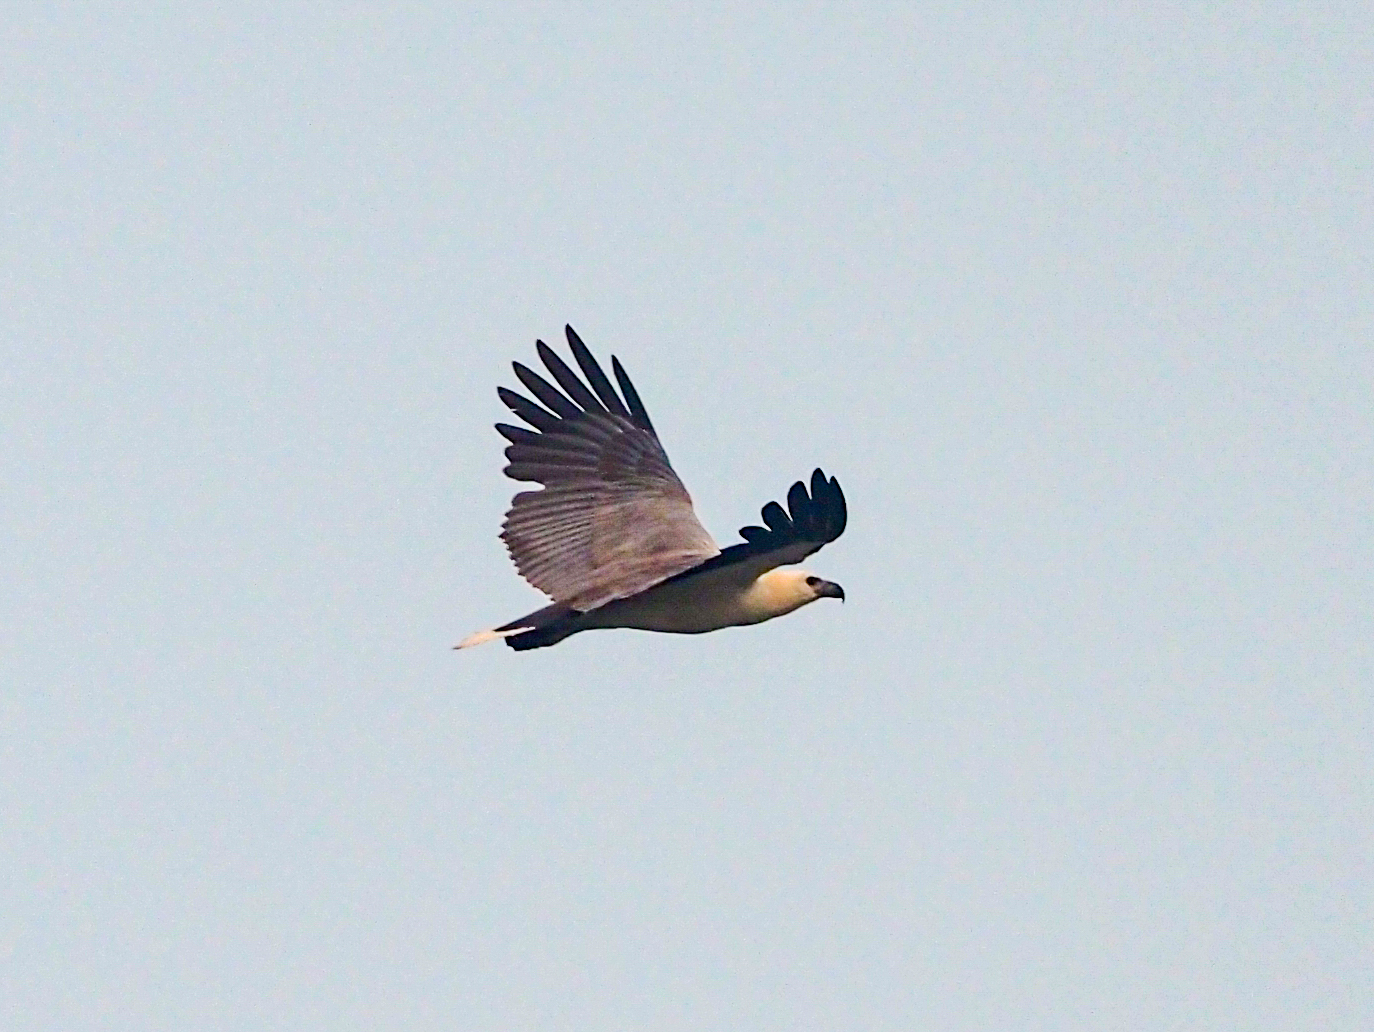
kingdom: Animalia
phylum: Chordata
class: Aves
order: Accipitriformes
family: Accipitridae
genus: Haliaeetus
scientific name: Haliaeetus leucogaster
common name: White-bellied sea eagle
